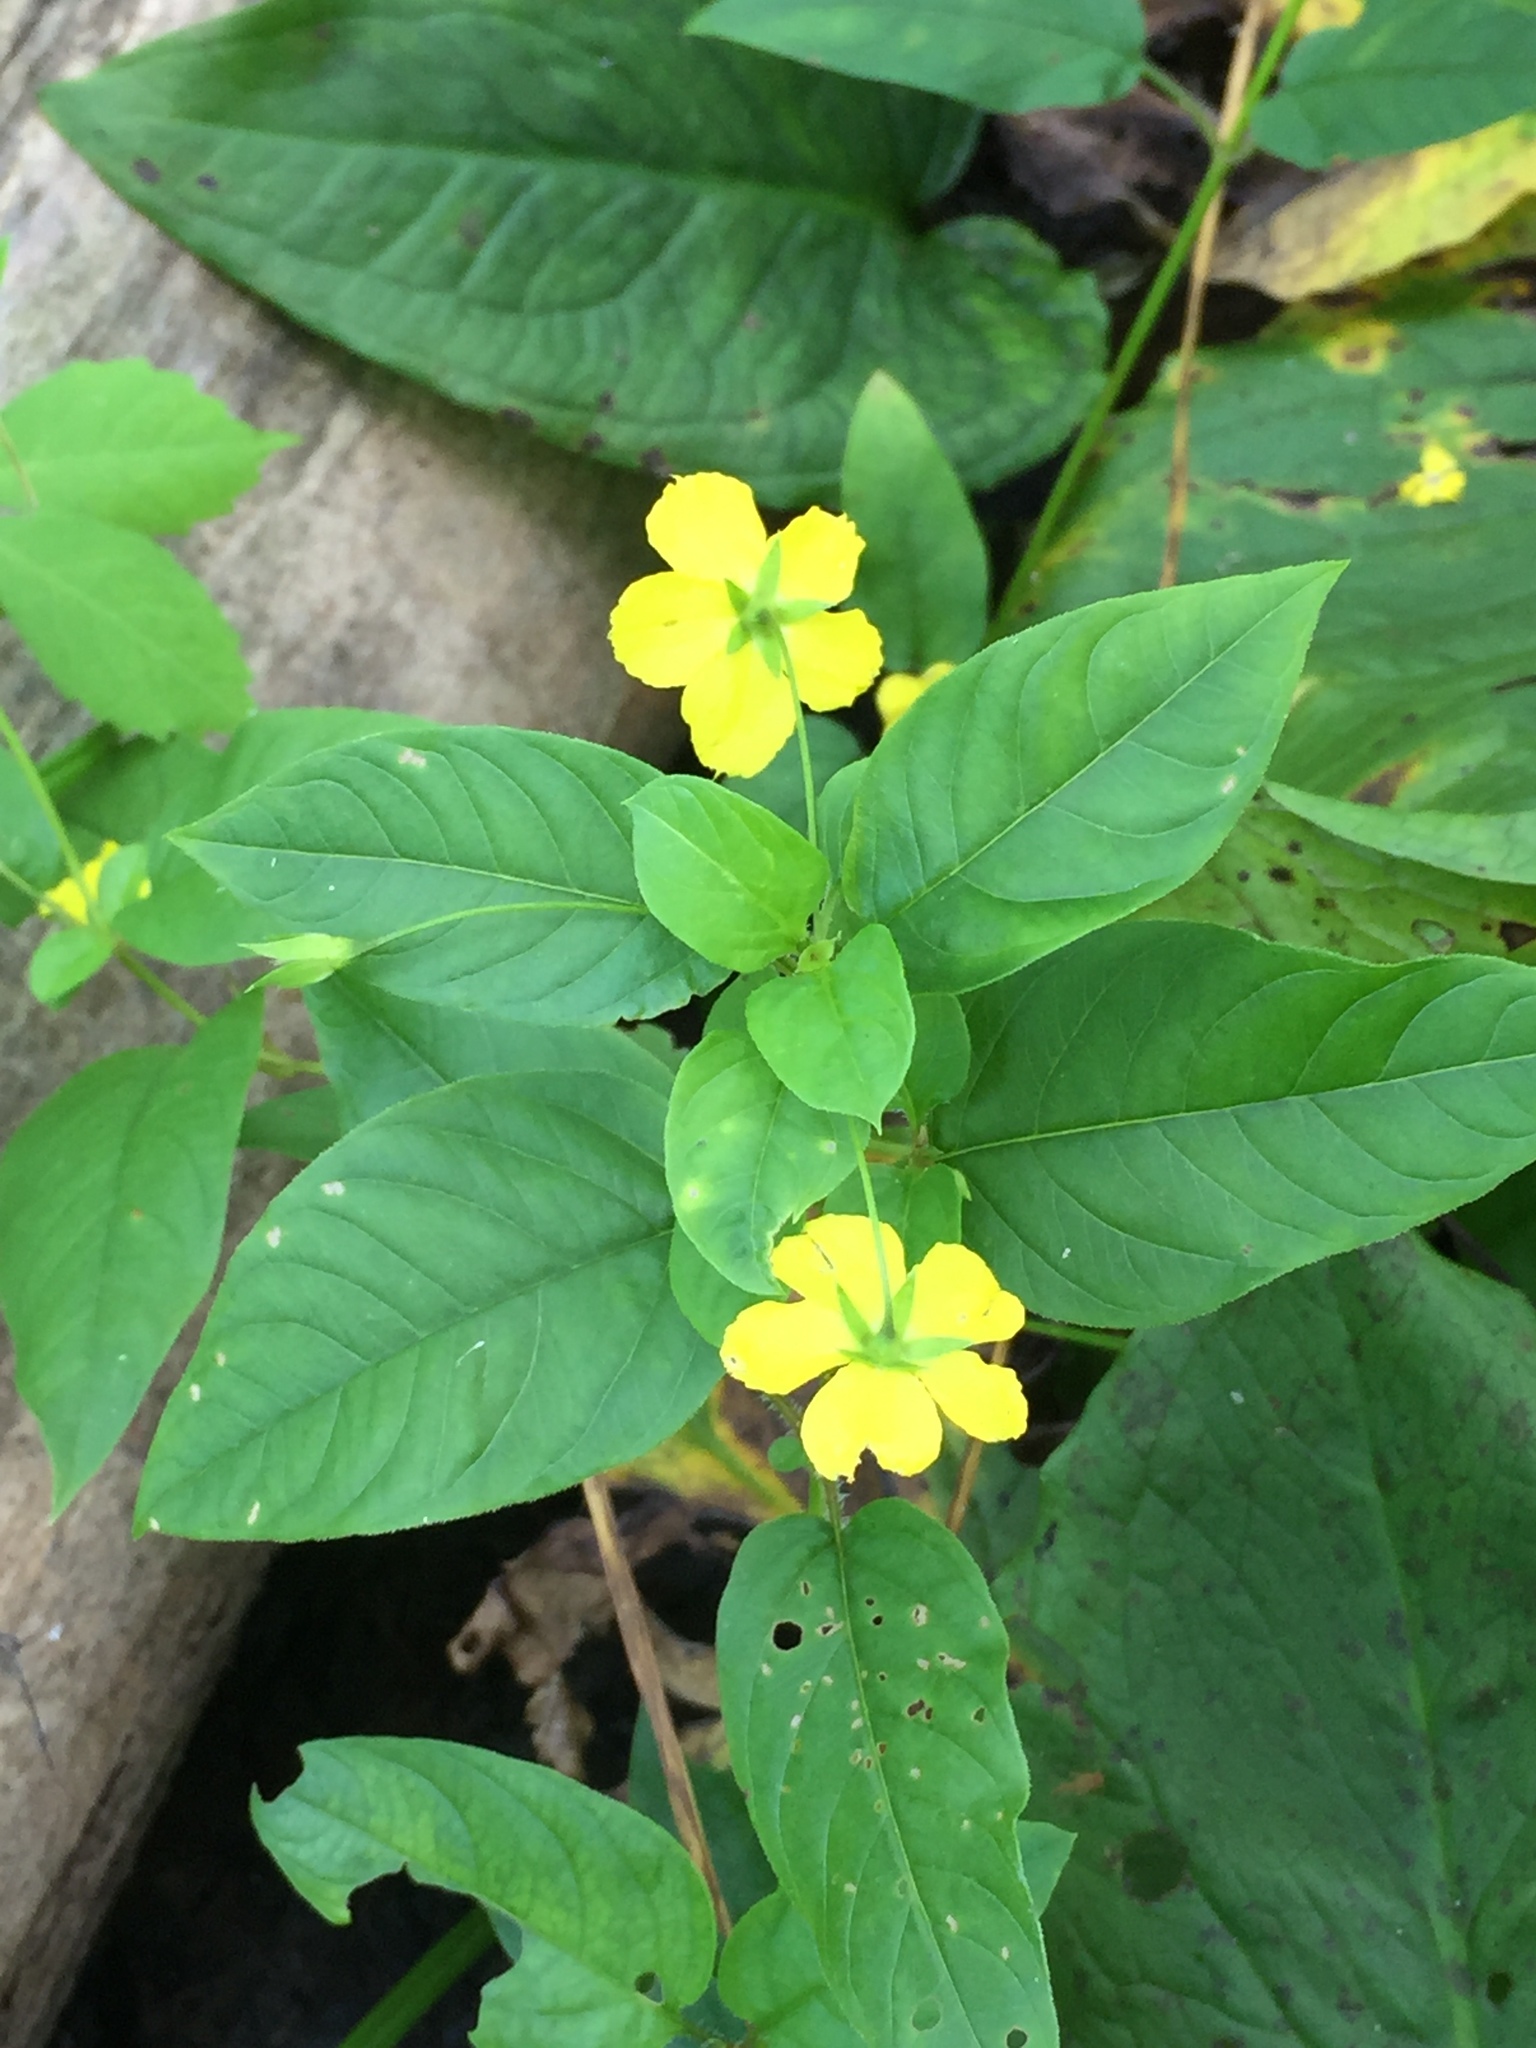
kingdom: Plantae
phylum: Tracheophyta
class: Magnoliopsida
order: Ericales
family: Primulaceae
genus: Lysimachia
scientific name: Lysimachia ciliata
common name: Fringed loosestrife
